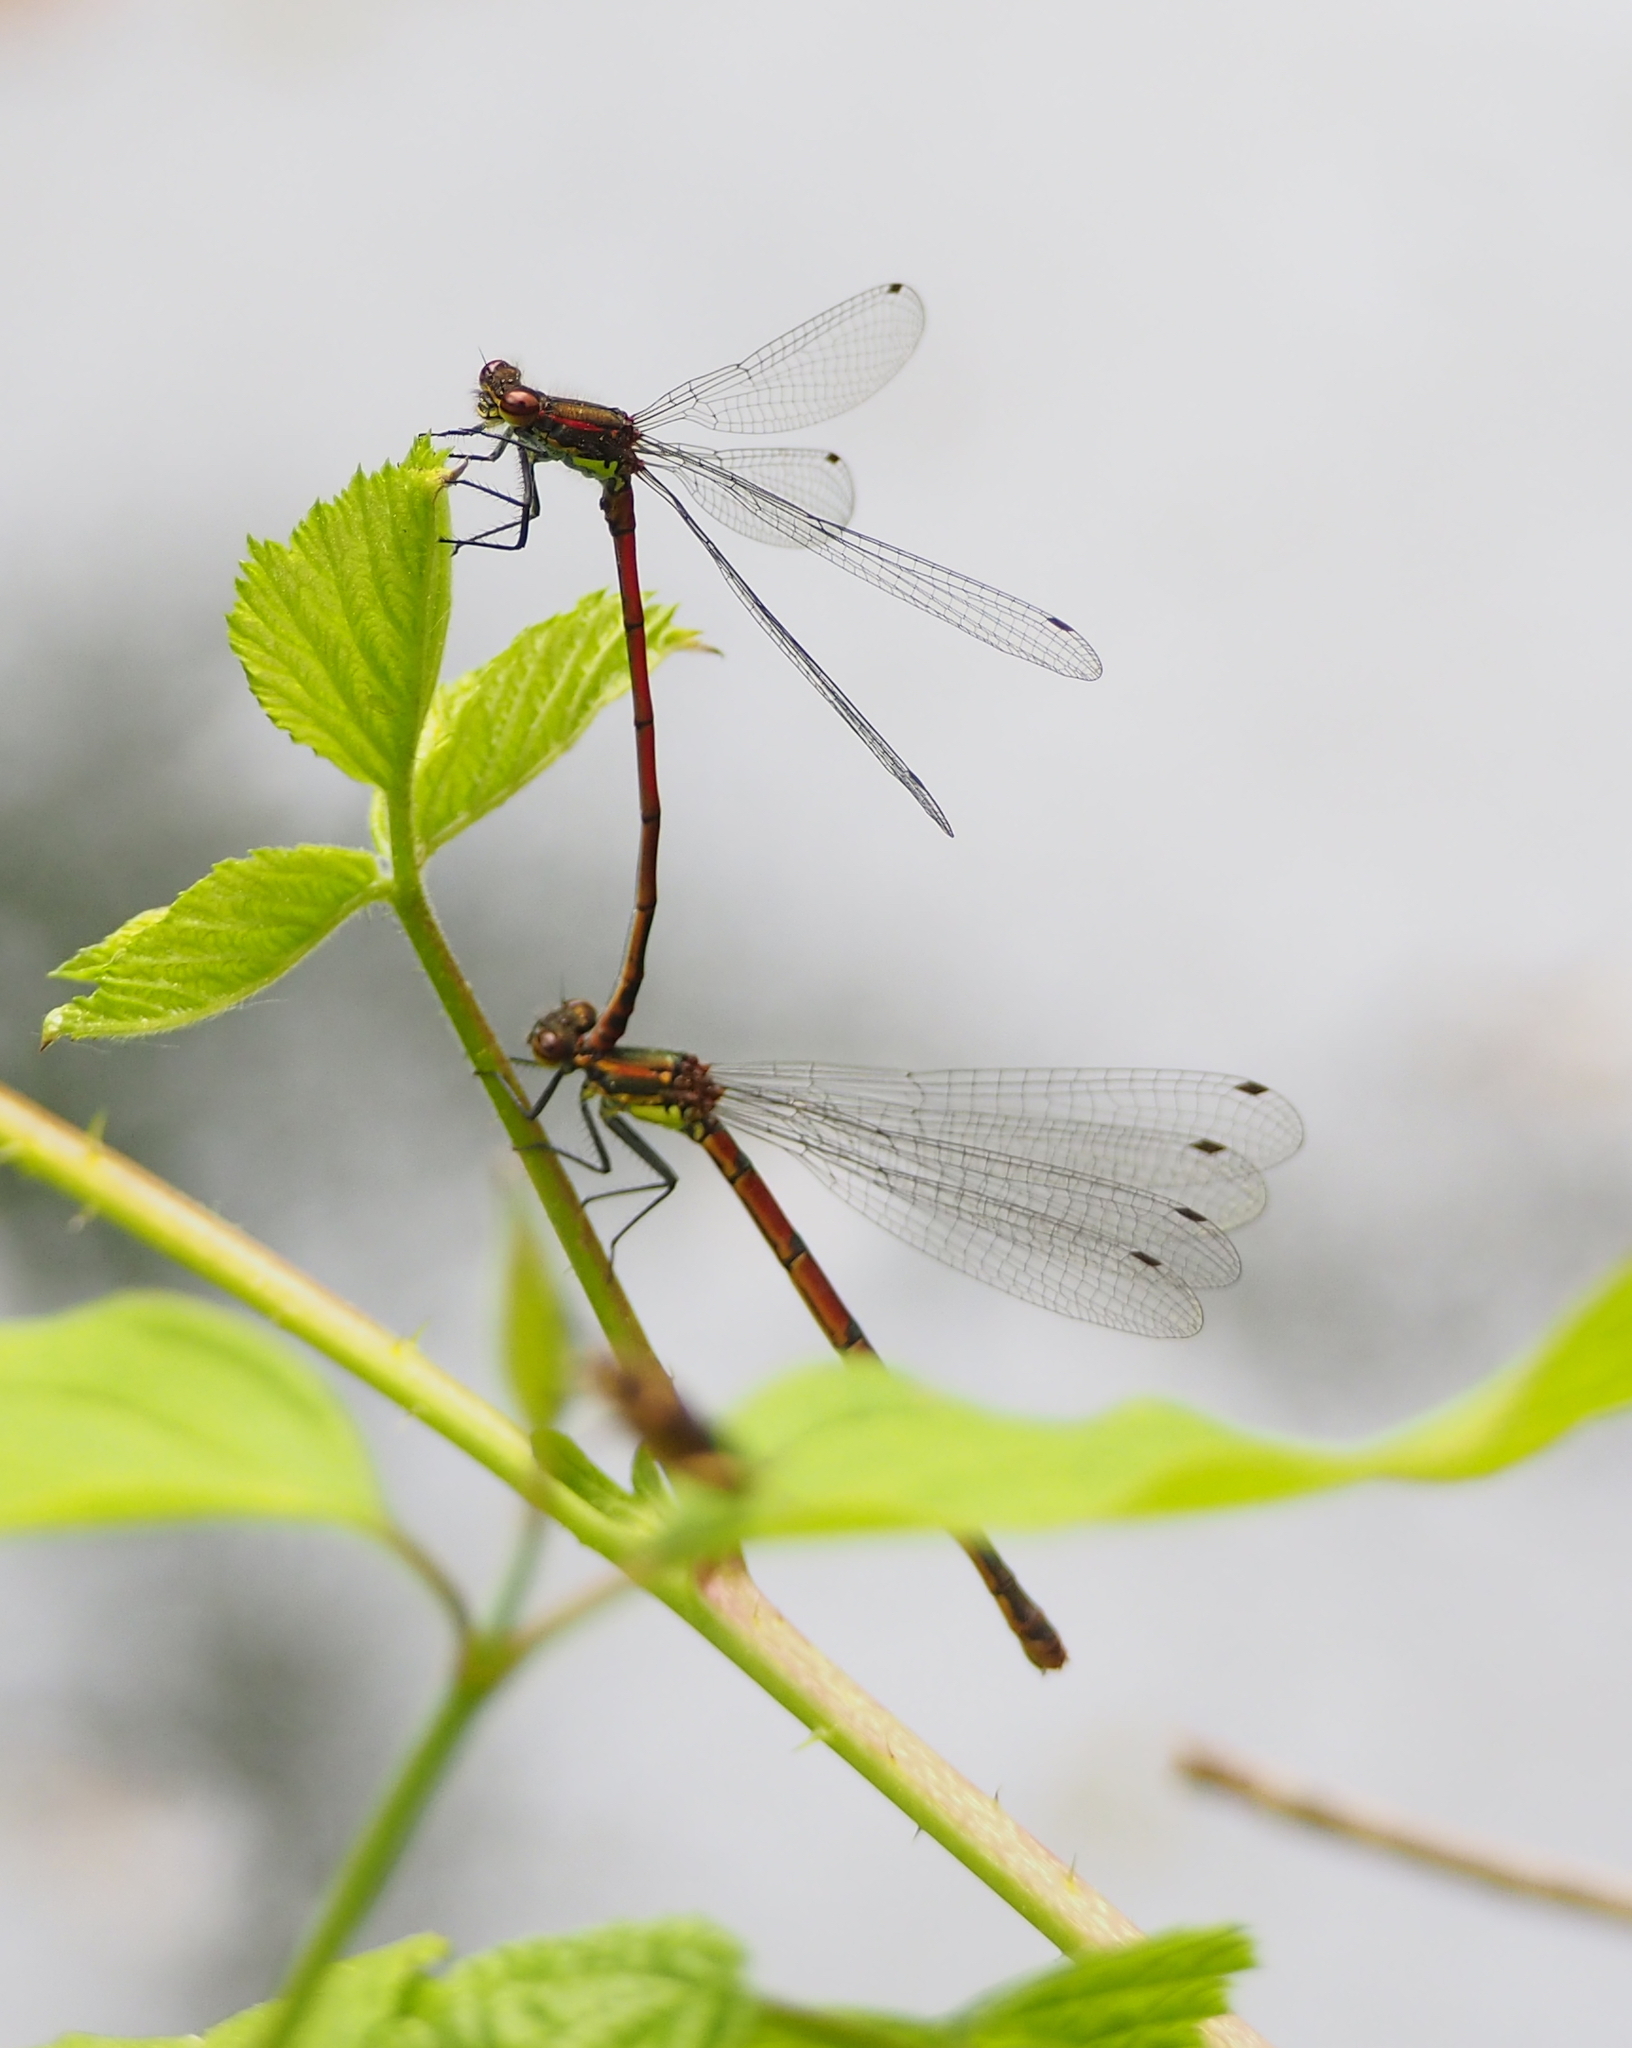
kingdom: Animalia
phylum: Arthropoda
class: Insecta
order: Odonata
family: Coenagrionidae
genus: Pyrrhosoma
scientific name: Pyrrhosoma nymphula
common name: Large red damsel
